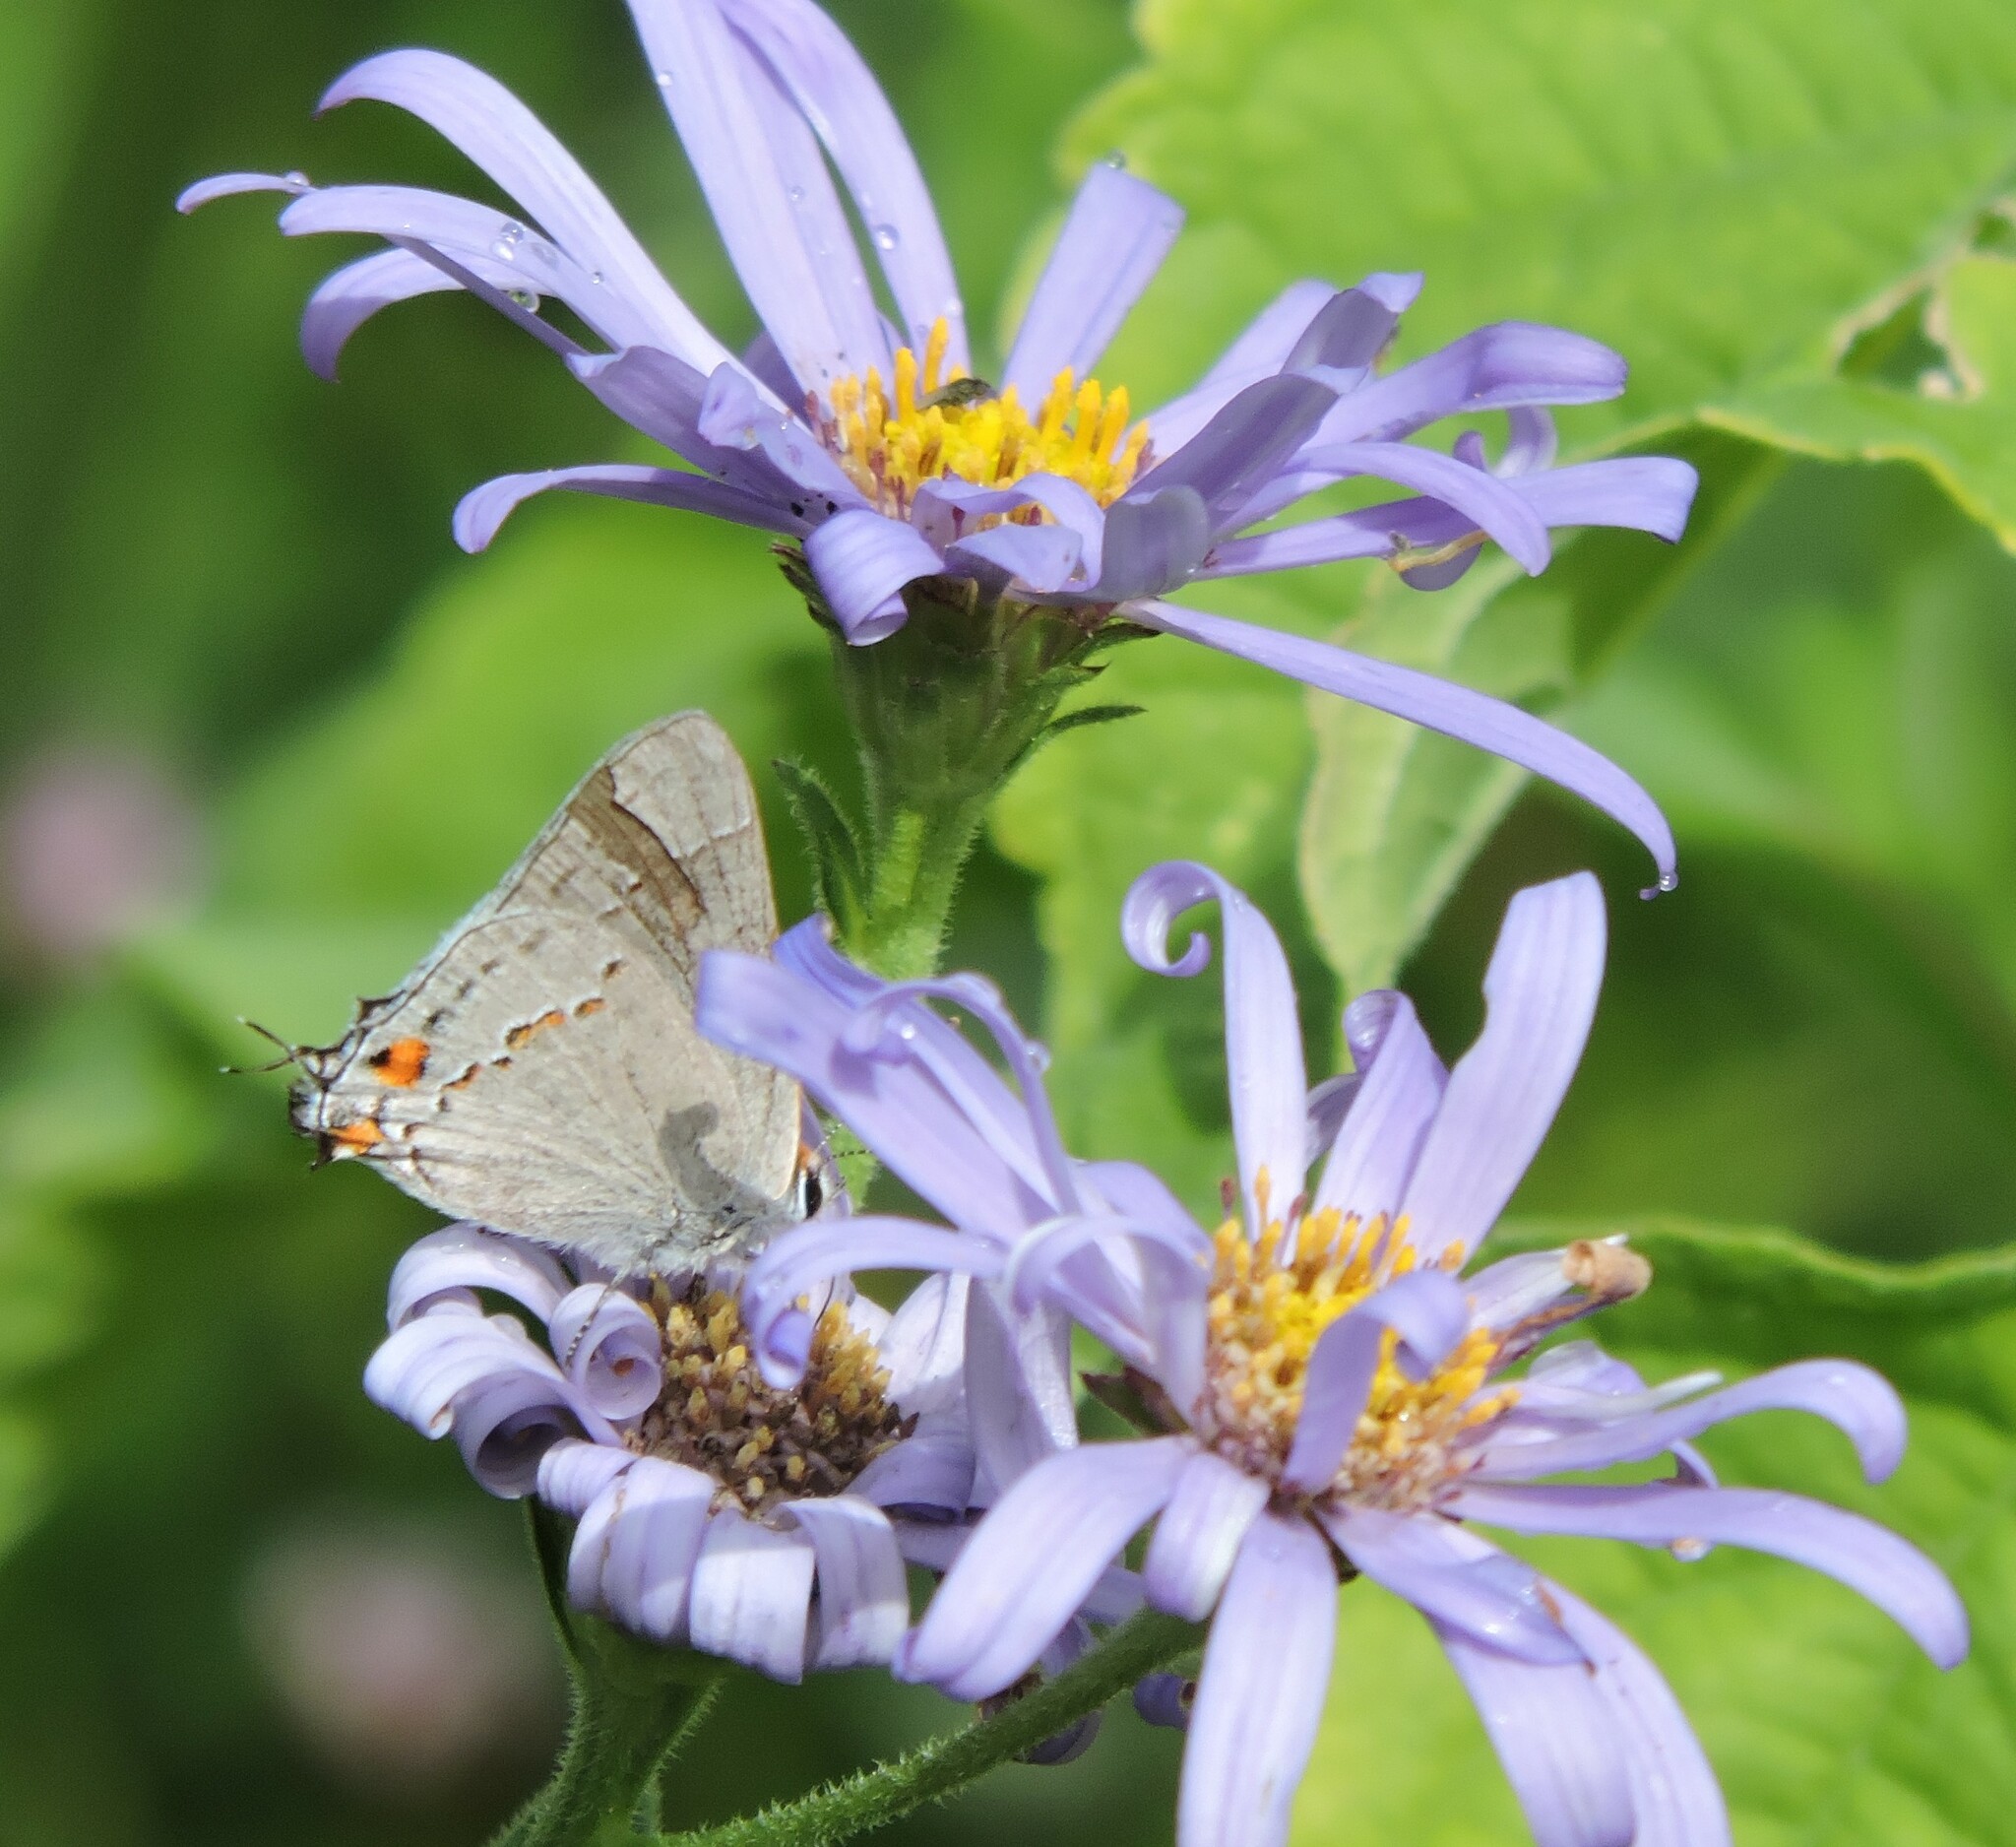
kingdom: Animalia
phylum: Arthropoda
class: Insecta
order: Lepidoptera
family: Lycaenidae
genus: Strymon
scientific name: Strymon melinus
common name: Gray hairstreak
